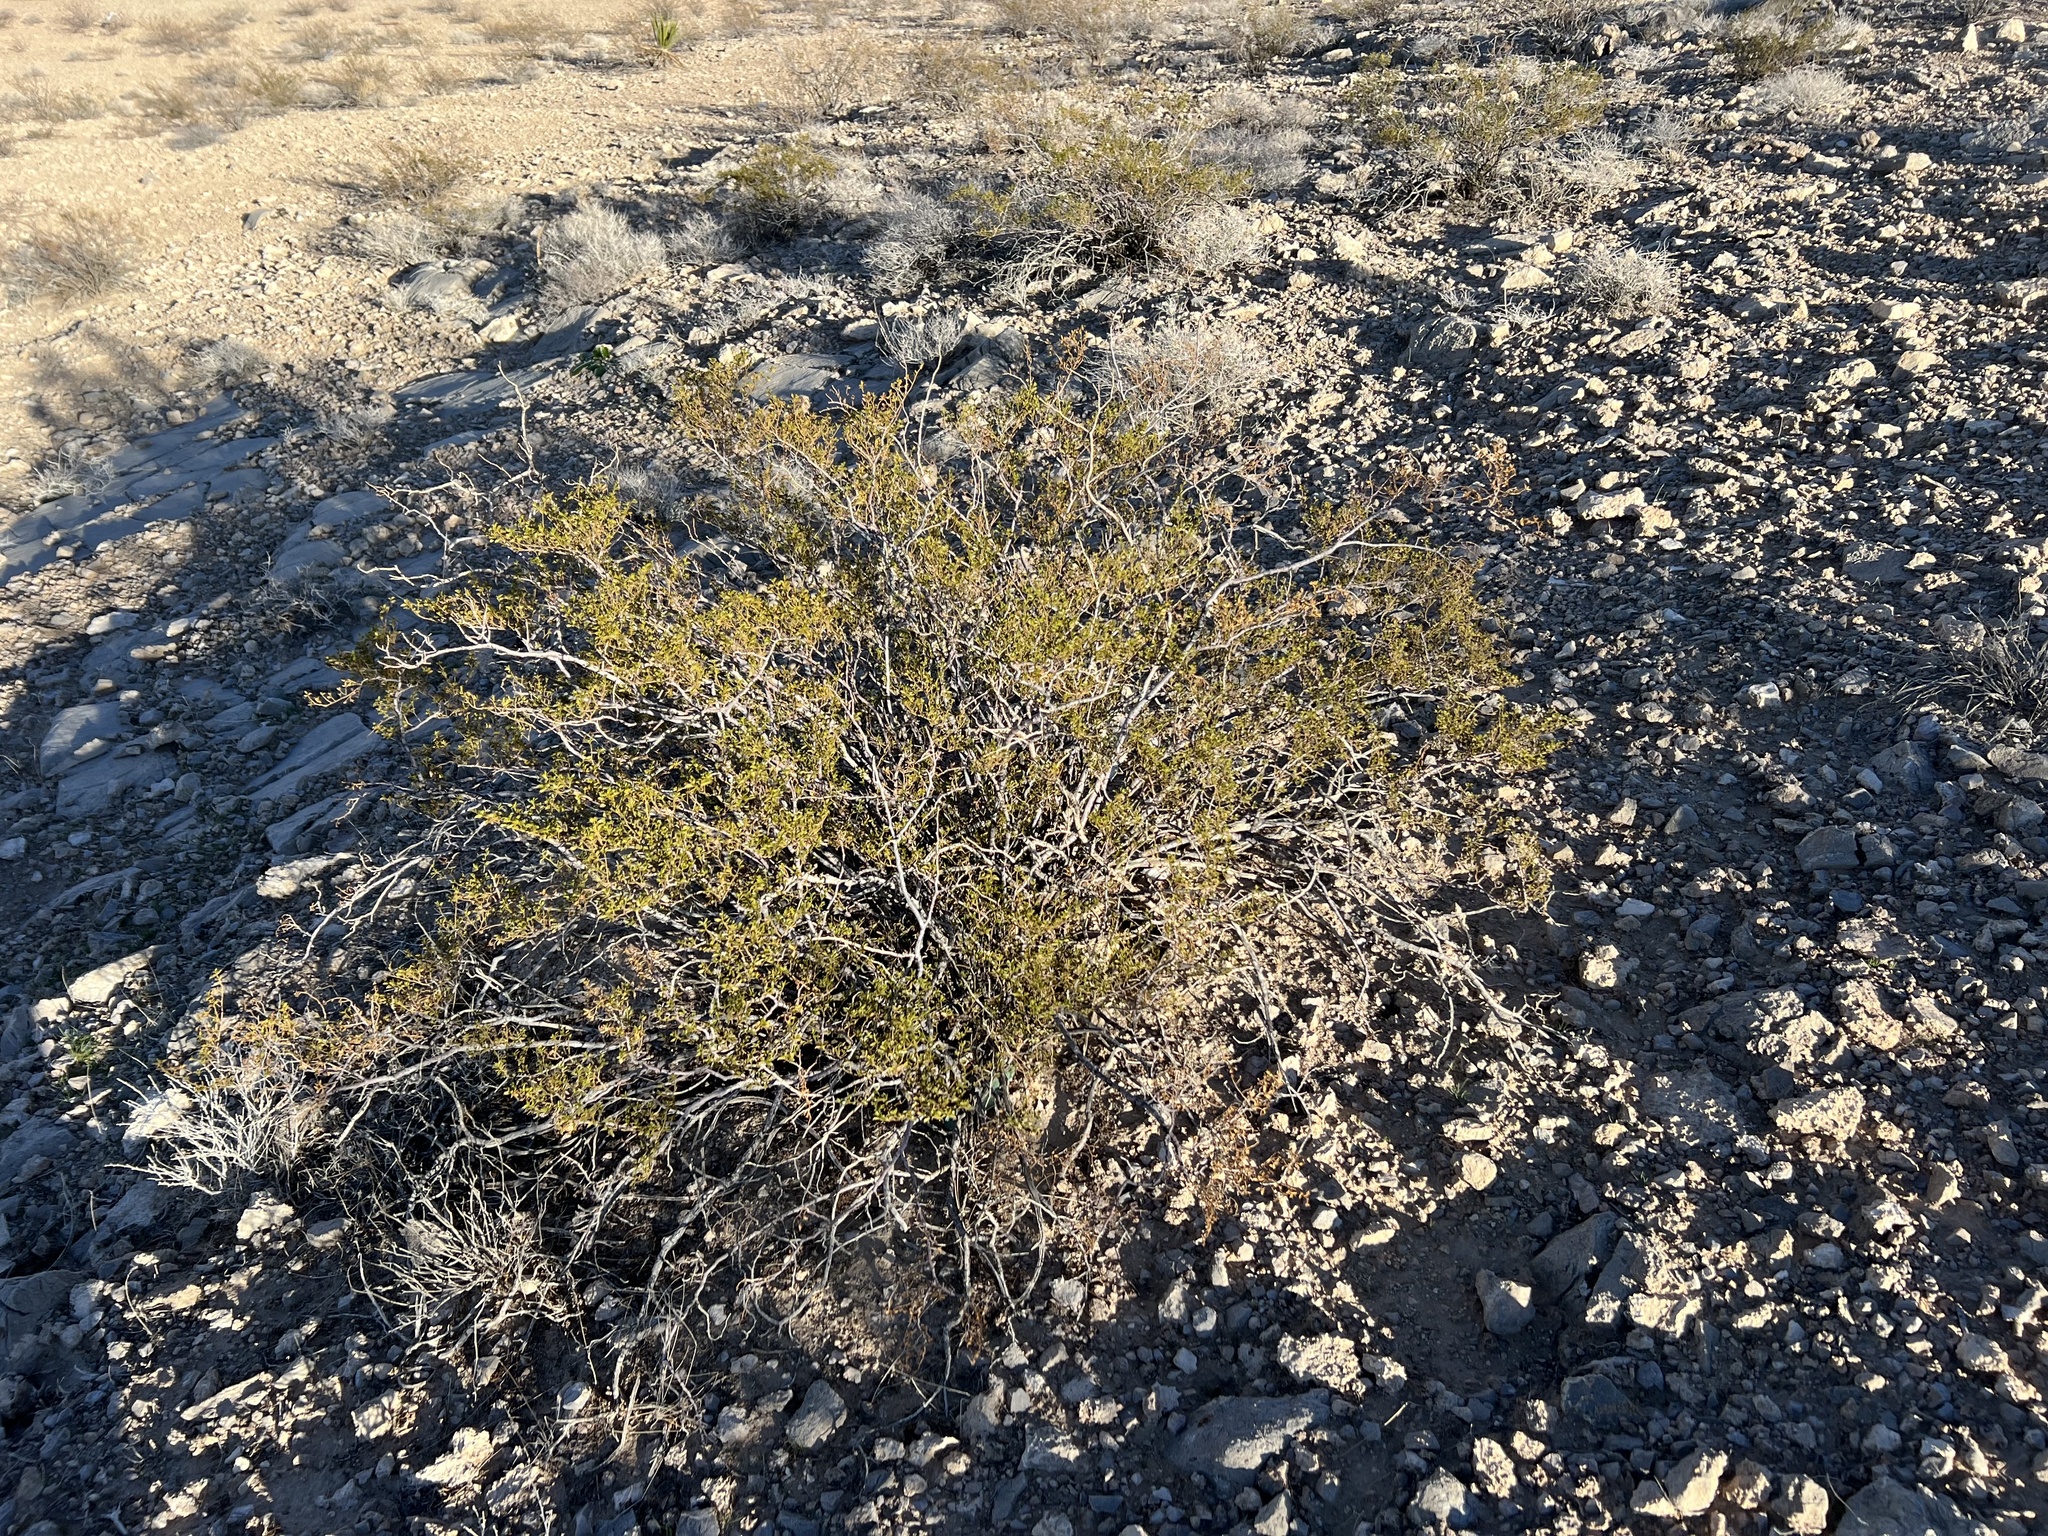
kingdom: Plantae
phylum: Tracheophyta
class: Magnoliopsida
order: Zygophyllales
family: Zygophyllaceae
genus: Larrea
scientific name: Larrea tridentata
